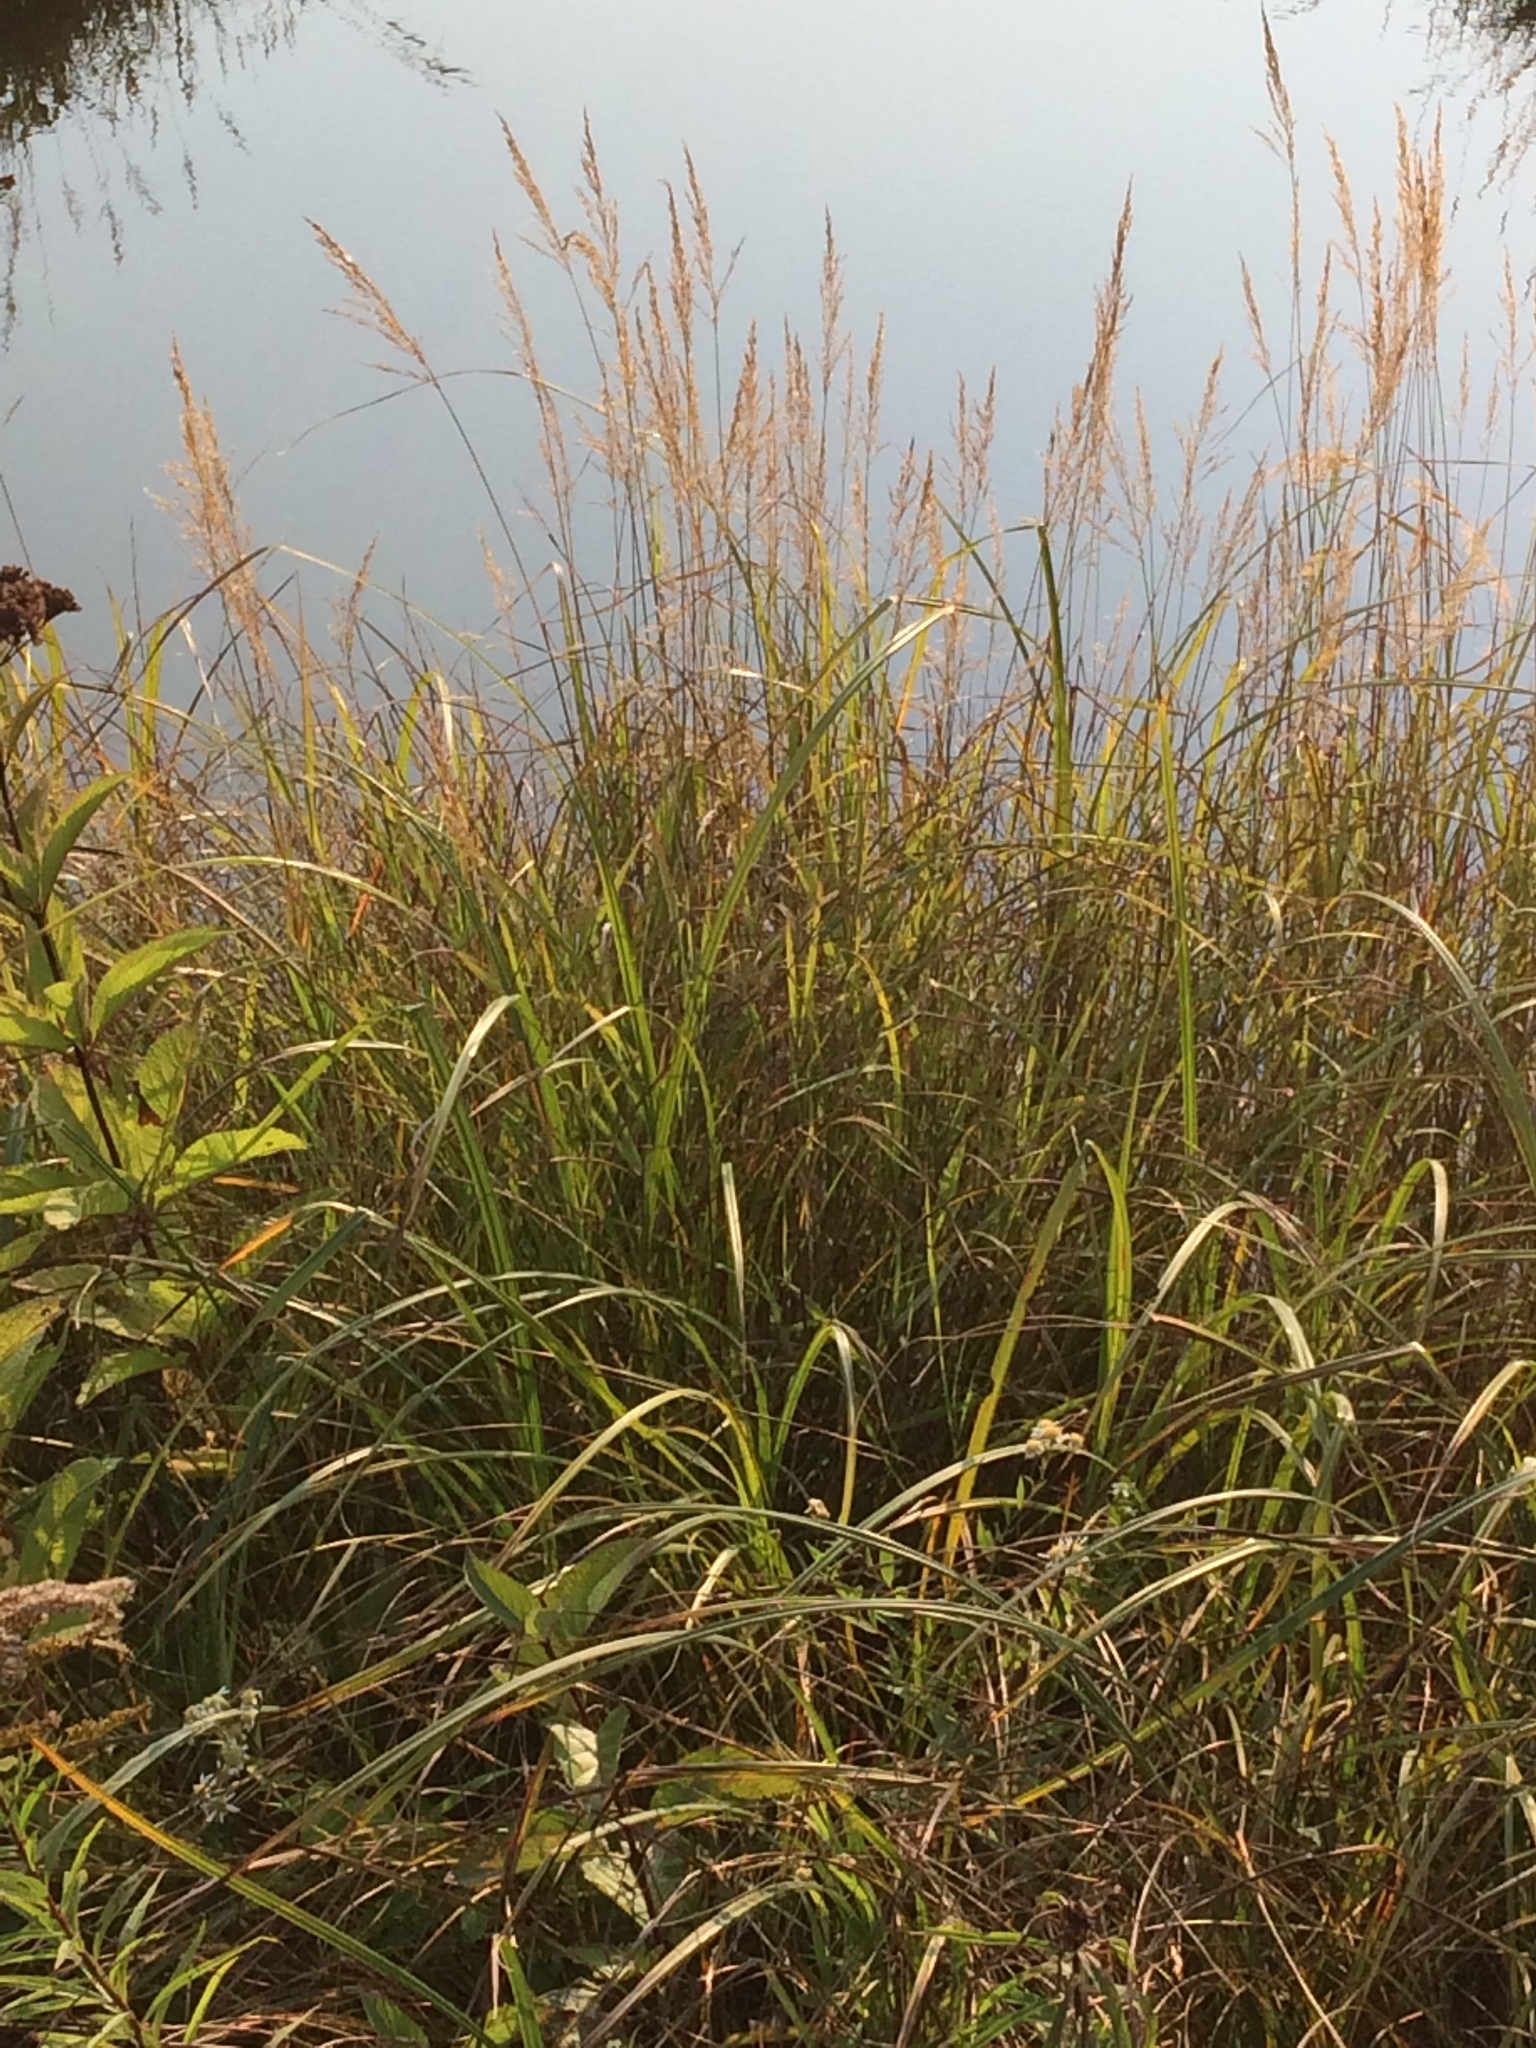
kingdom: Plantae
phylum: Tracheophyta
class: Liliopsida
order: Poales
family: Poaceae
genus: Calamagrostis
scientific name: Calamagrostis canadensis
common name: Canada bluejoint
